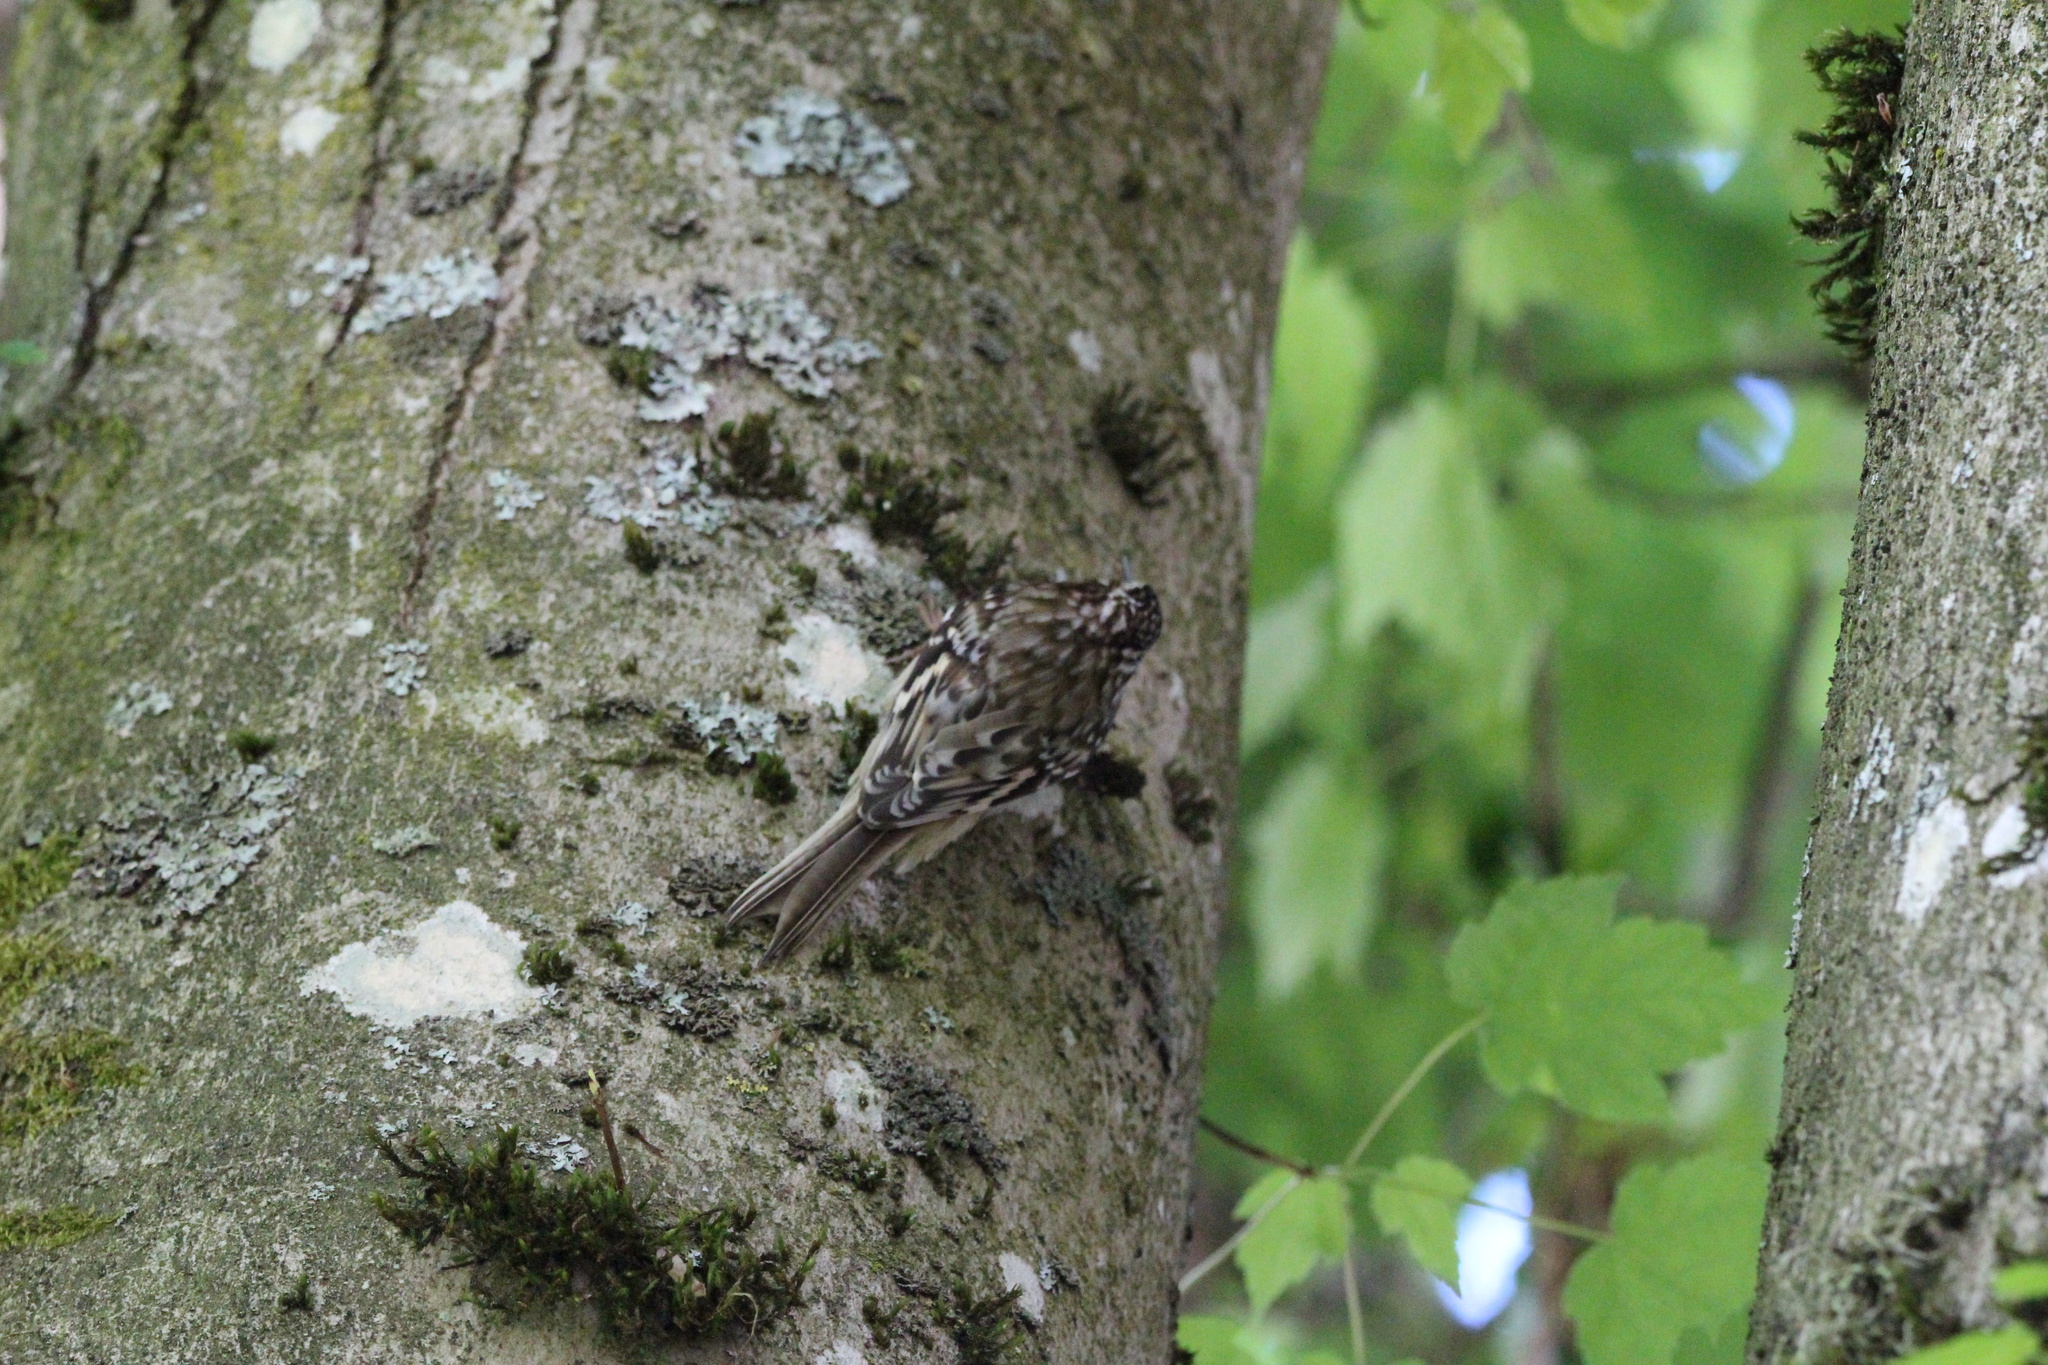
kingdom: Animalia
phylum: Chordata
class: Aves
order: Passeriformes
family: Certhiidae
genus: Certhia
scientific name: Certhia americana
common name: Brown creeper
